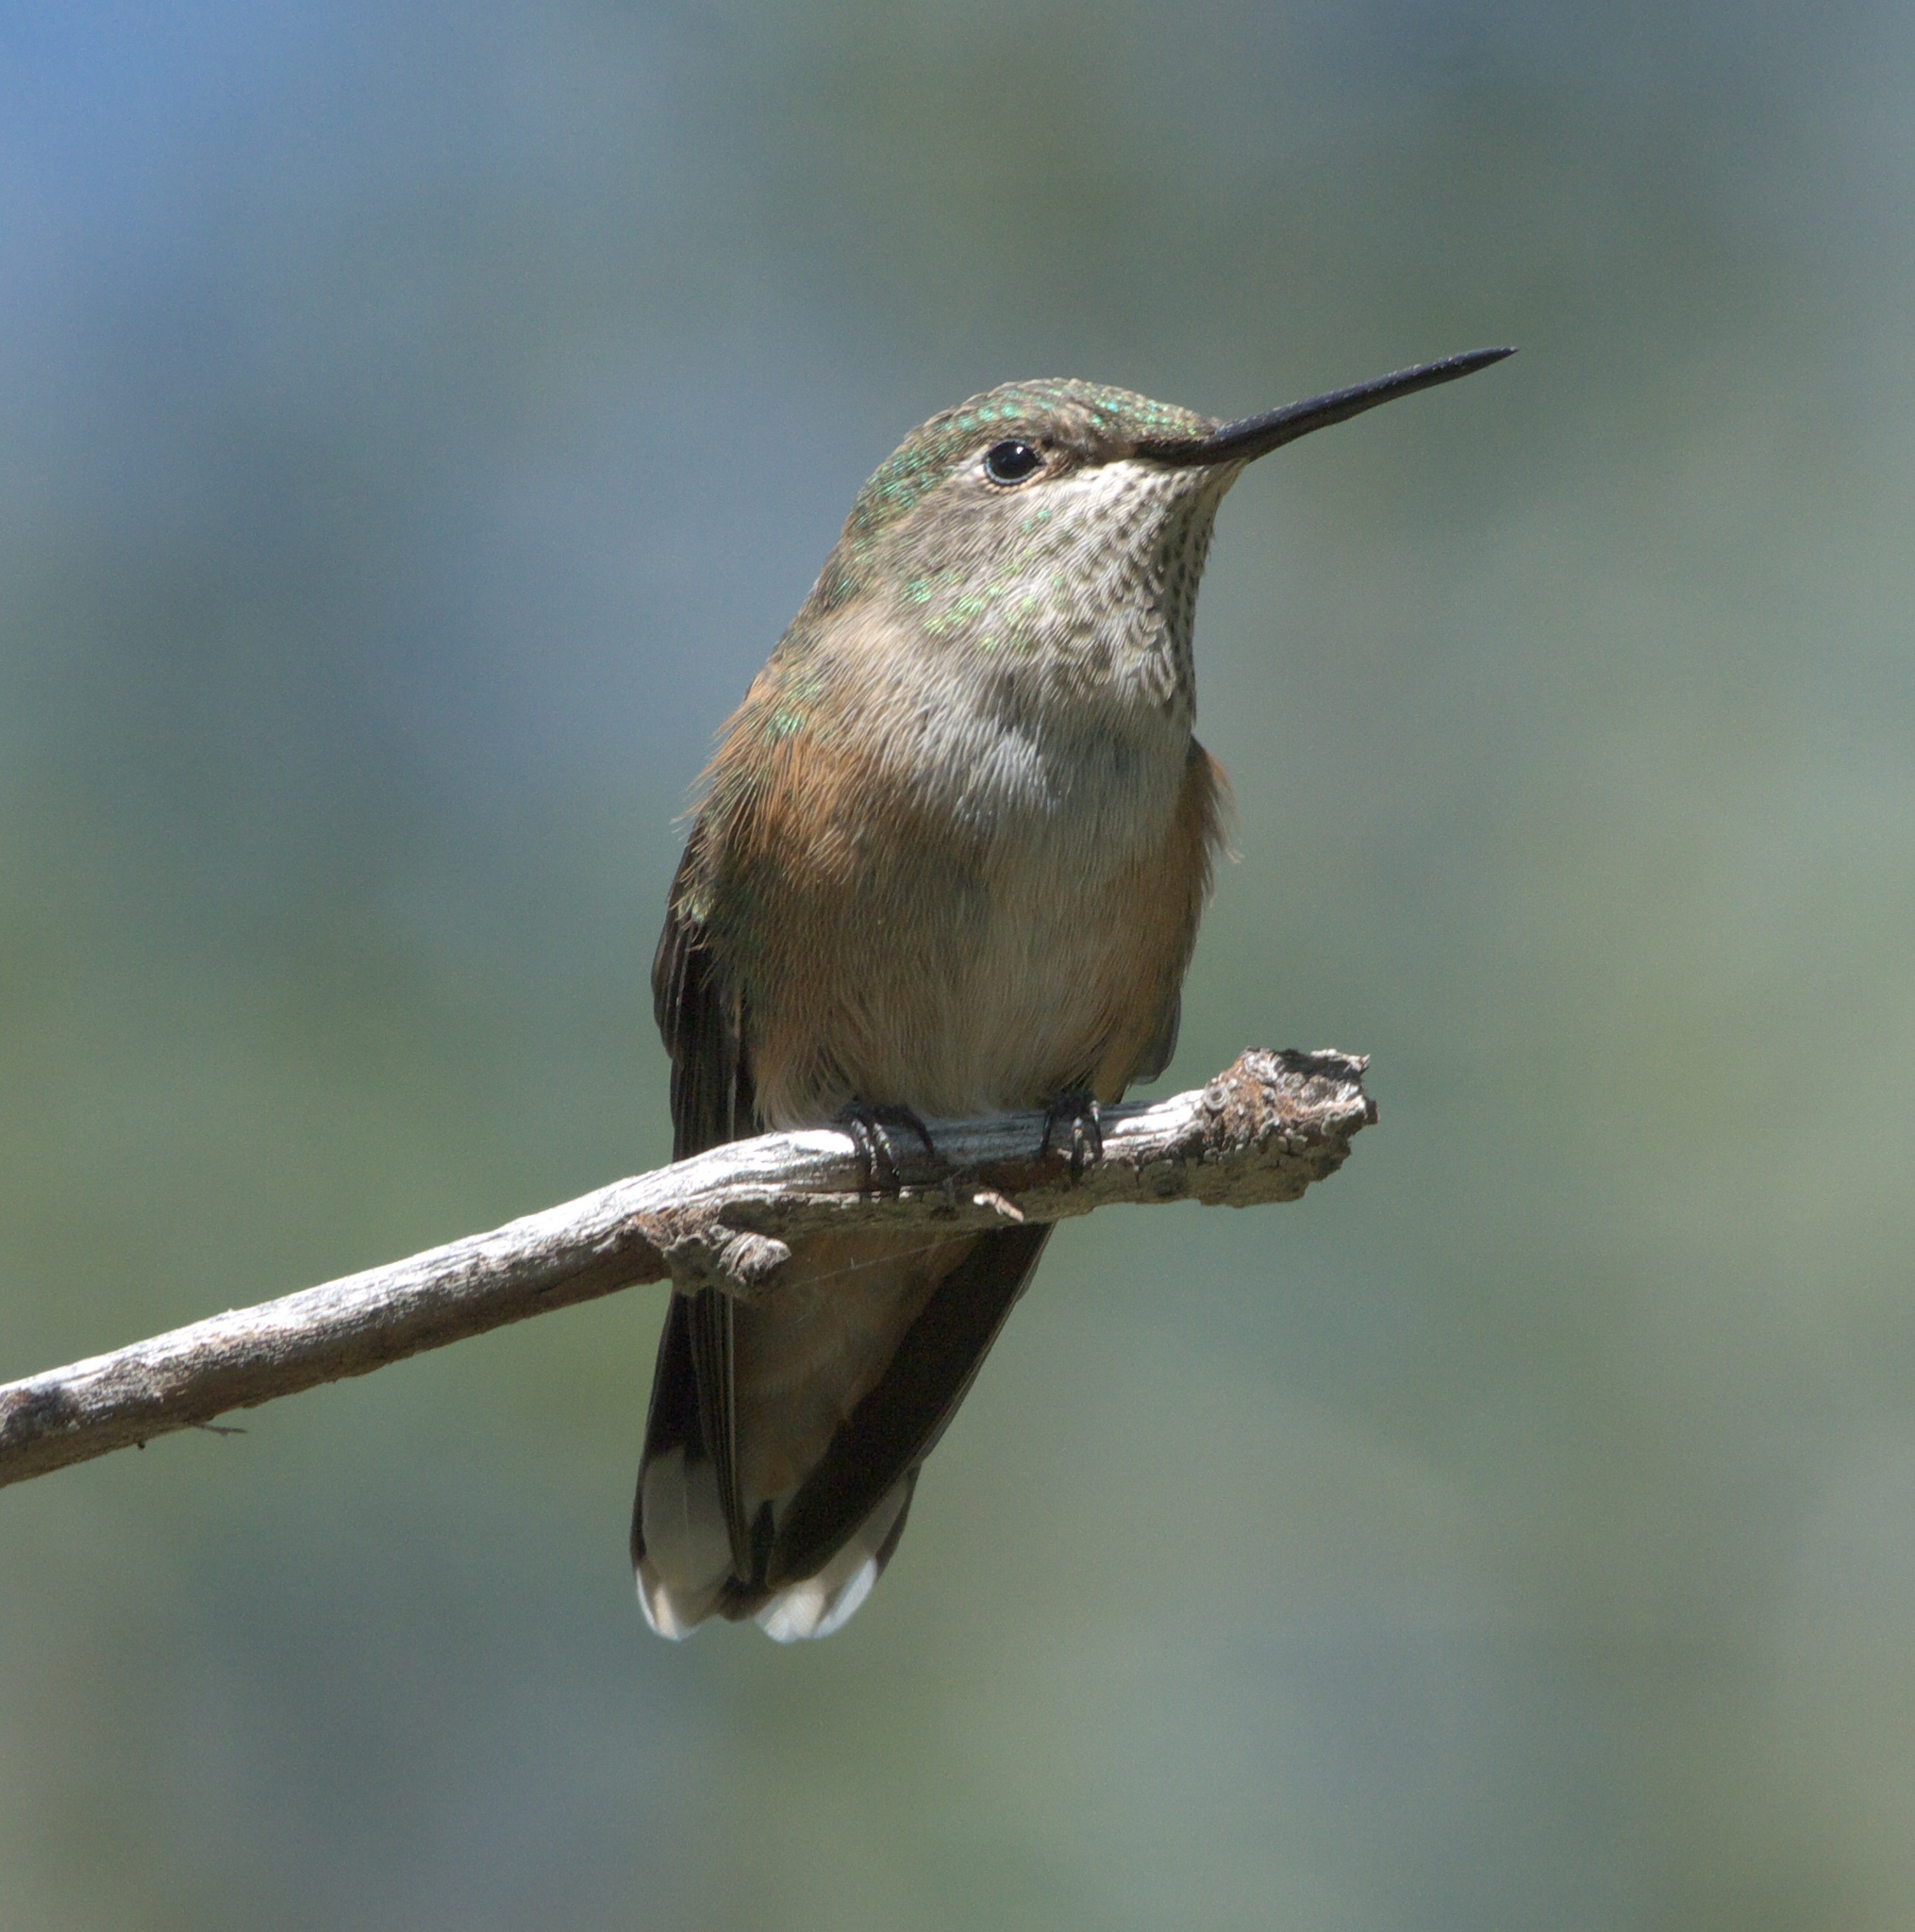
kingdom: Animalia
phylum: Chordata
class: Aves
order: Apodiformes
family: Trochilidae
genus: Selasphorus
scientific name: Selasphorus platycercus
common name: Broad-tailed hummingbird
